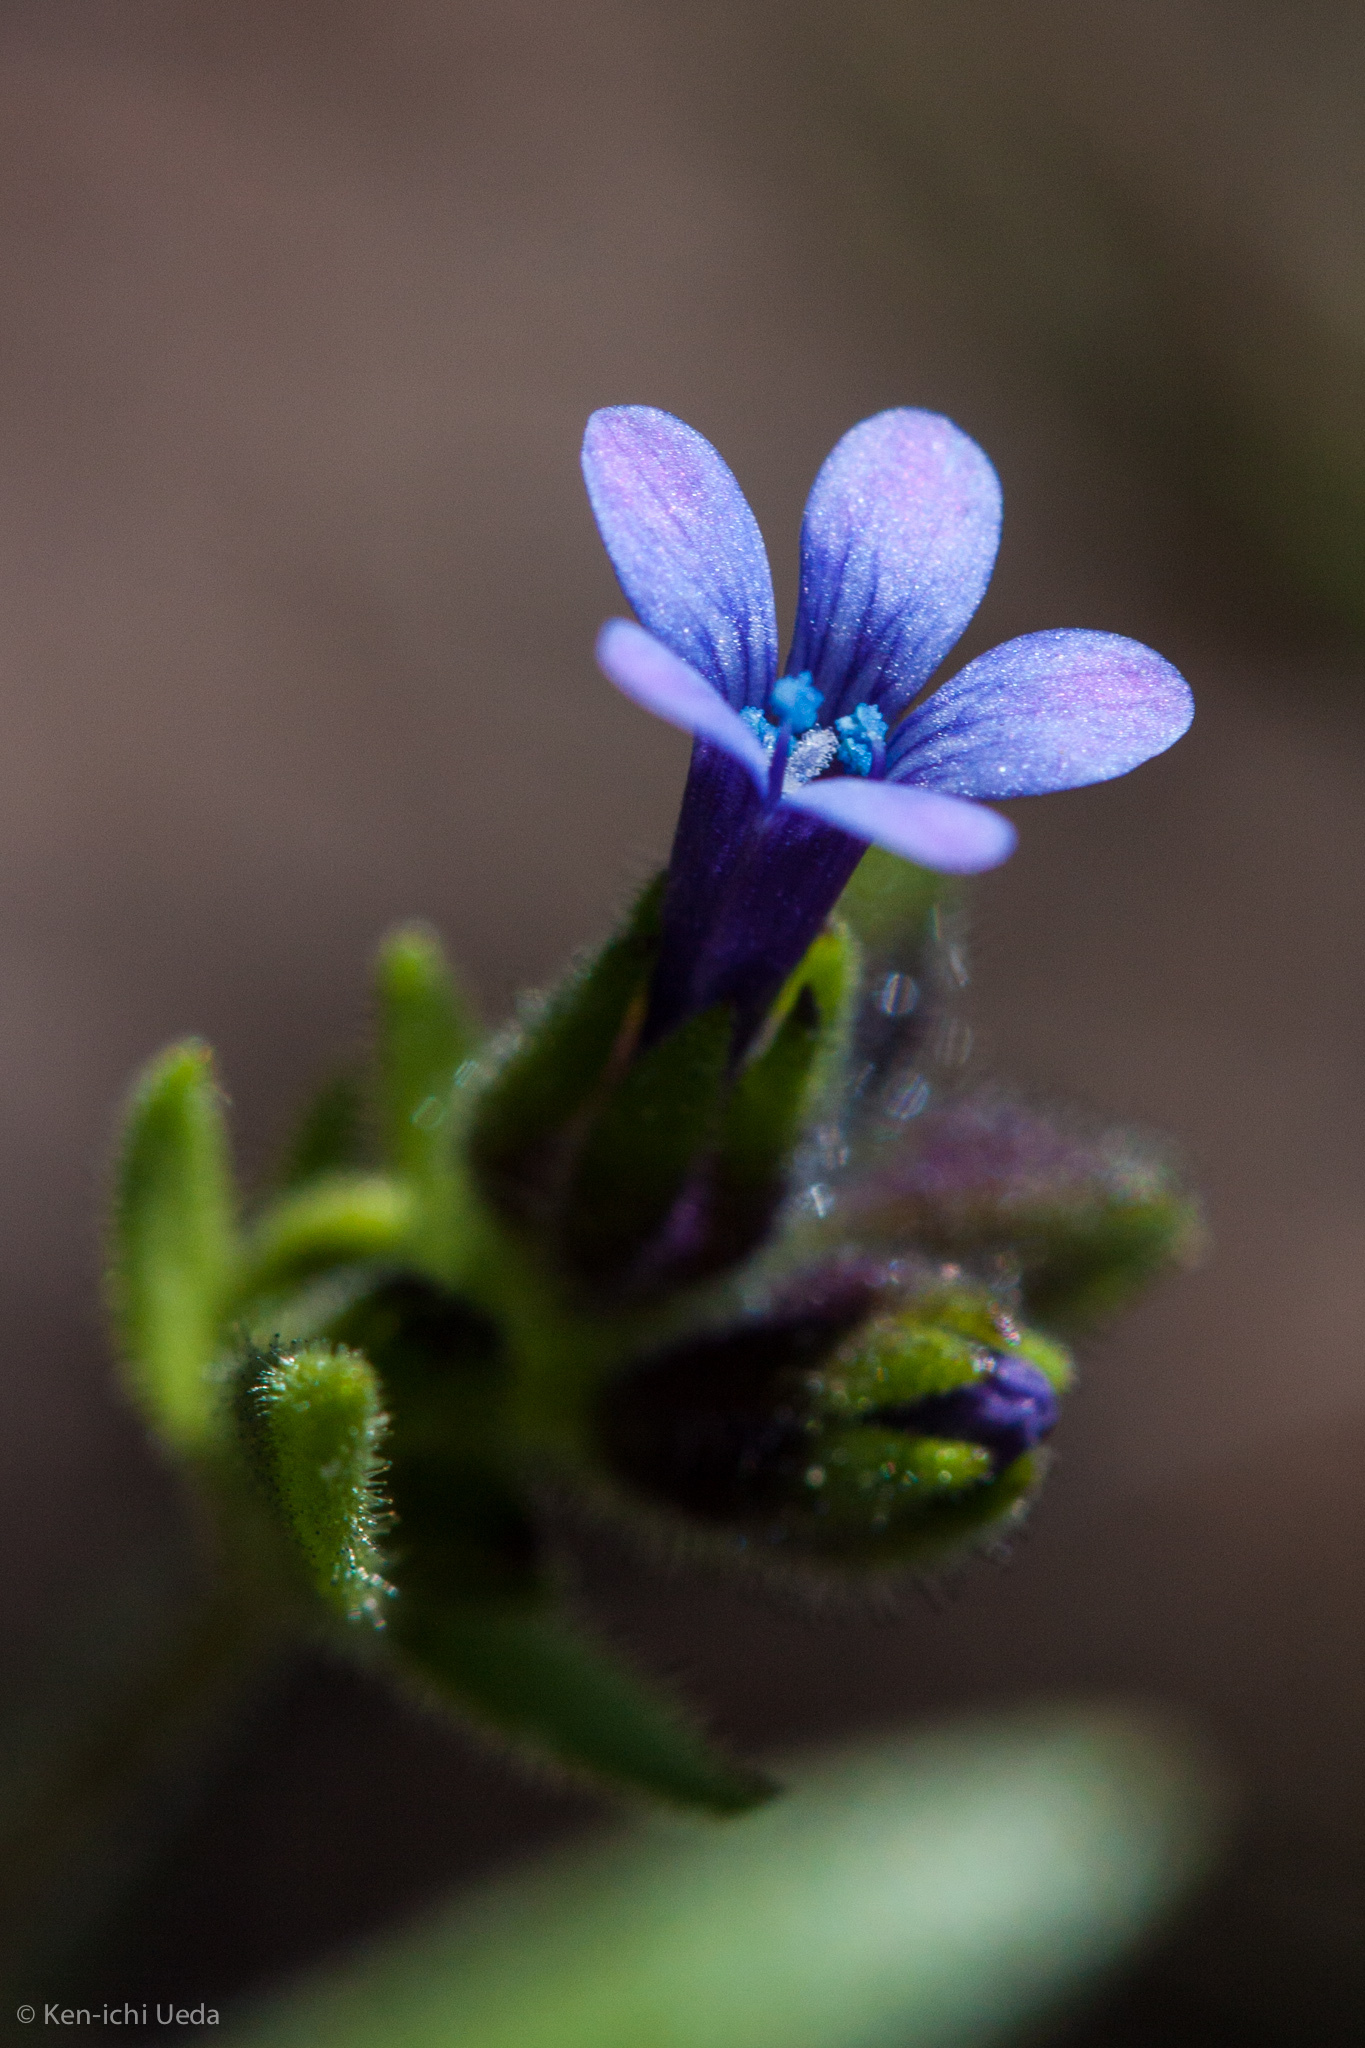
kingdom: Plantae
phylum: Tracheophyta
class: Magnoliopsida
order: Ericales
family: Polemoniaceae
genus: Allophyllum
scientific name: Allophyllum gilioides
